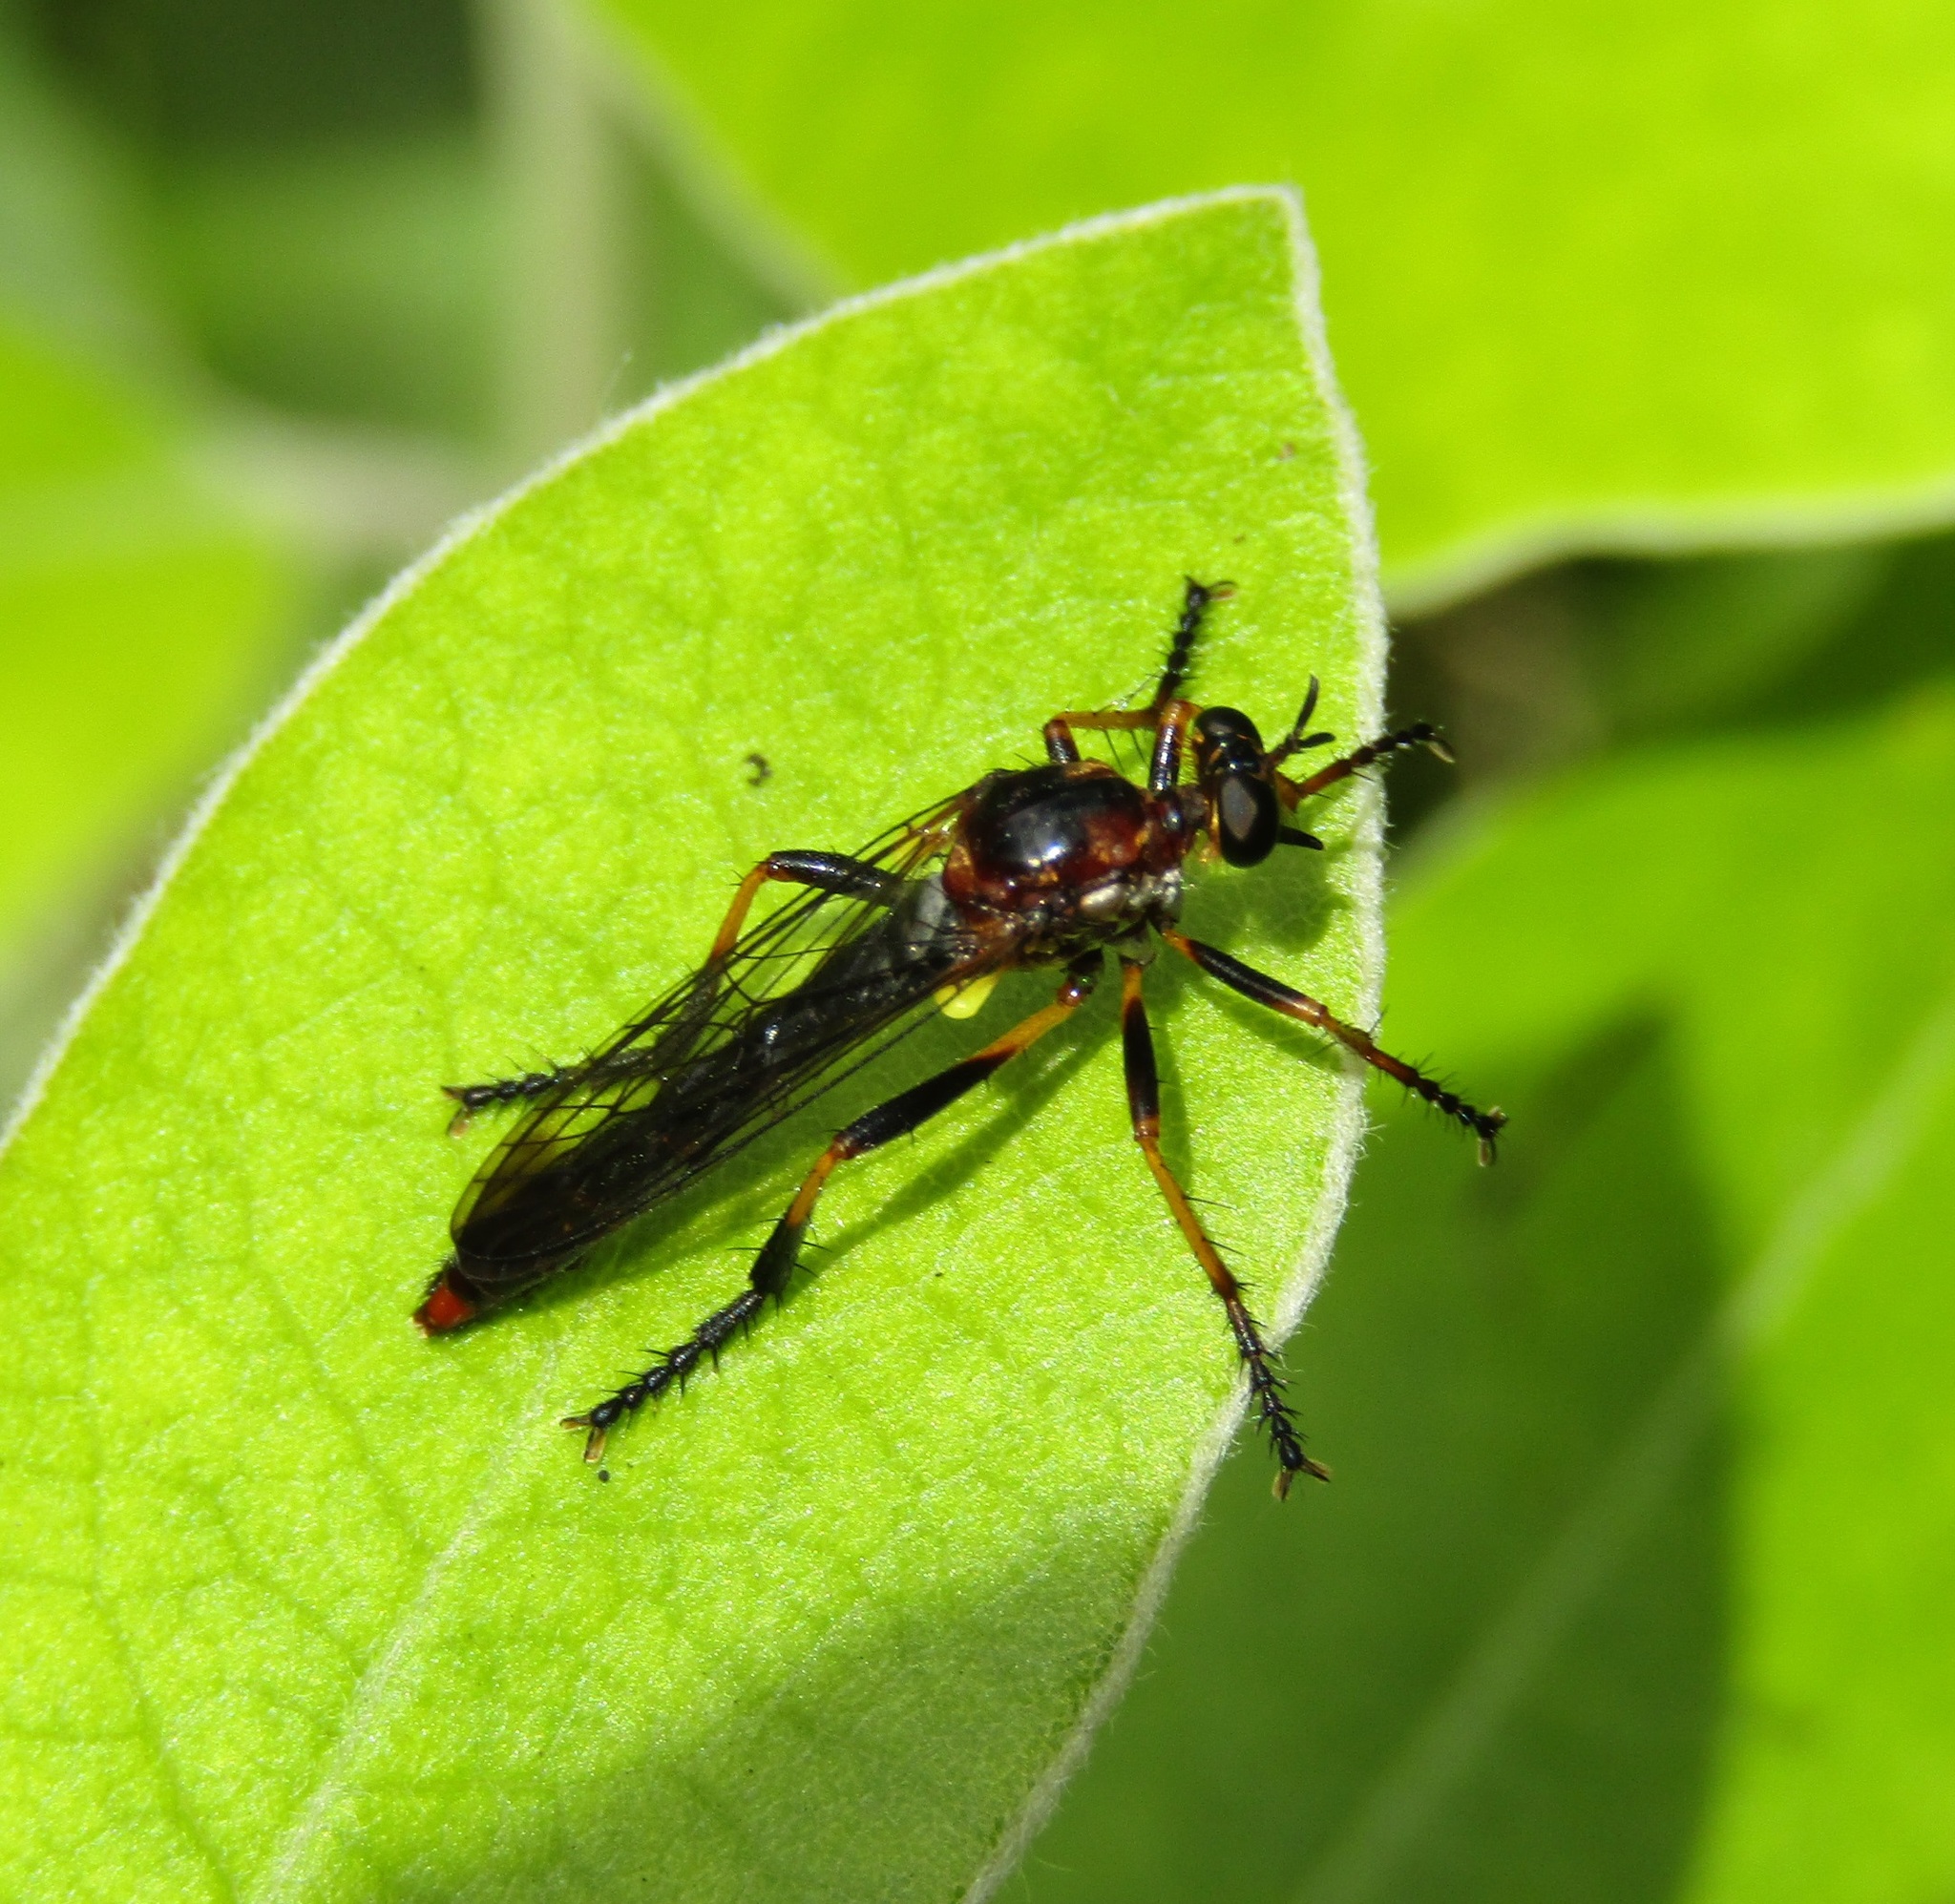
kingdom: Animalia
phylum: Arthropoda
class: Insecta
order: Diptera
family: Asilidae
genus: Saropogon
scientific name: Saropogon fascipes
